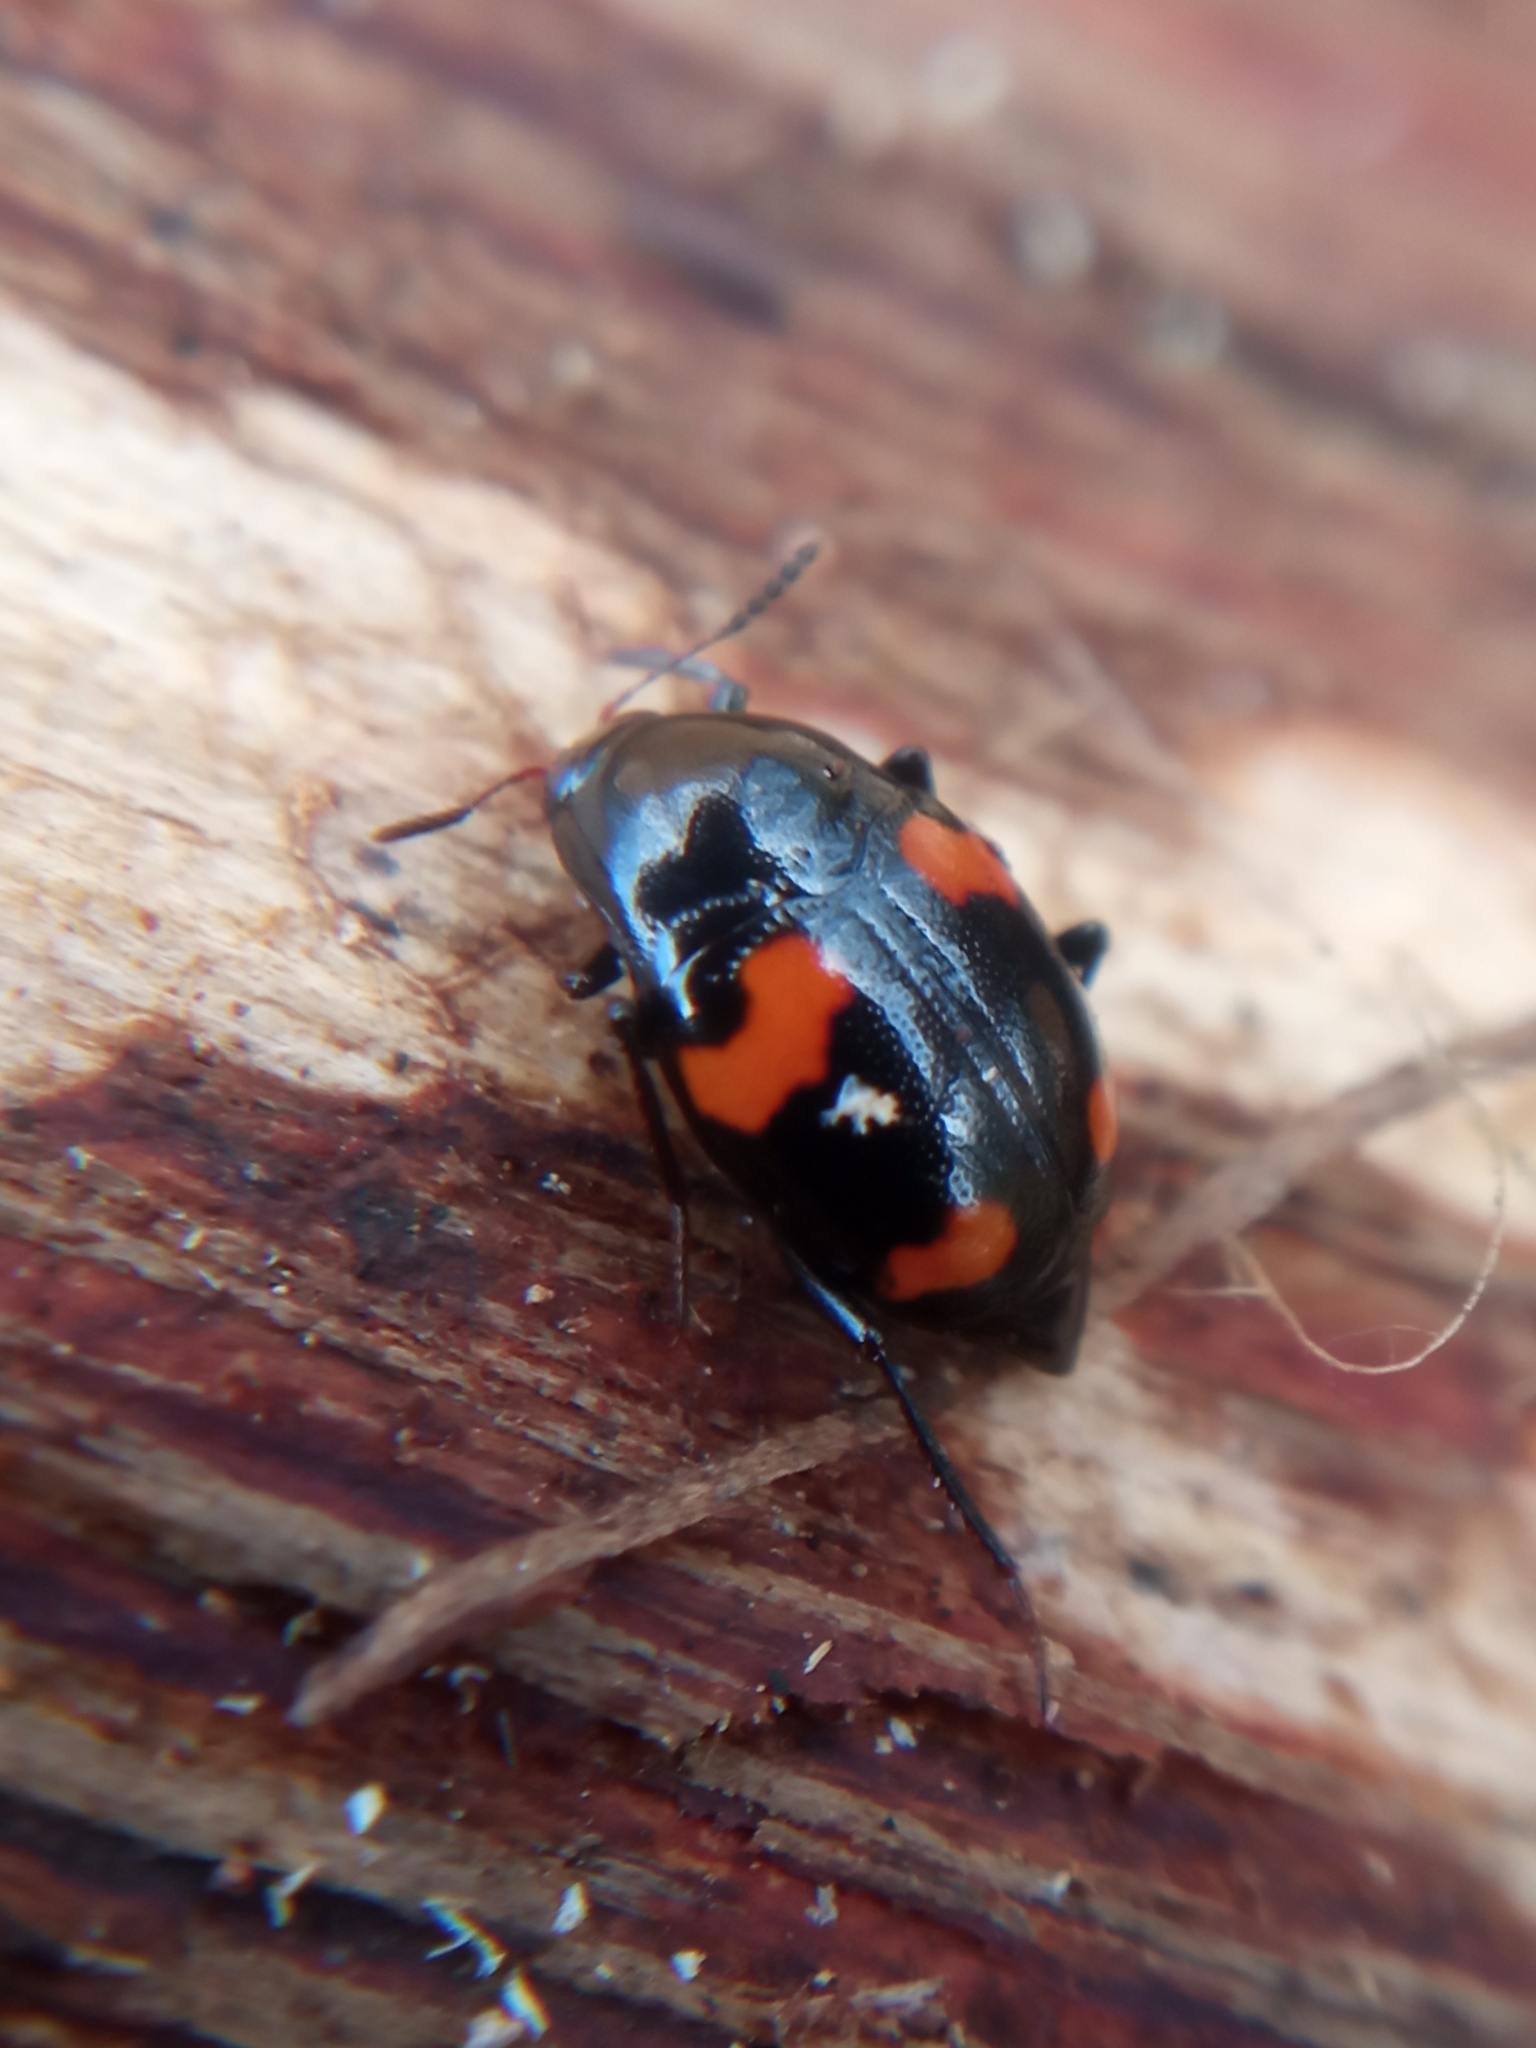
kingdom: Animalia
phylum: Arthropoda
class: Insecta
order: Coleoptera
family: Staphylinidae
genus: Scaphidium
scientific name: Scaphidium quadrimaculatum
